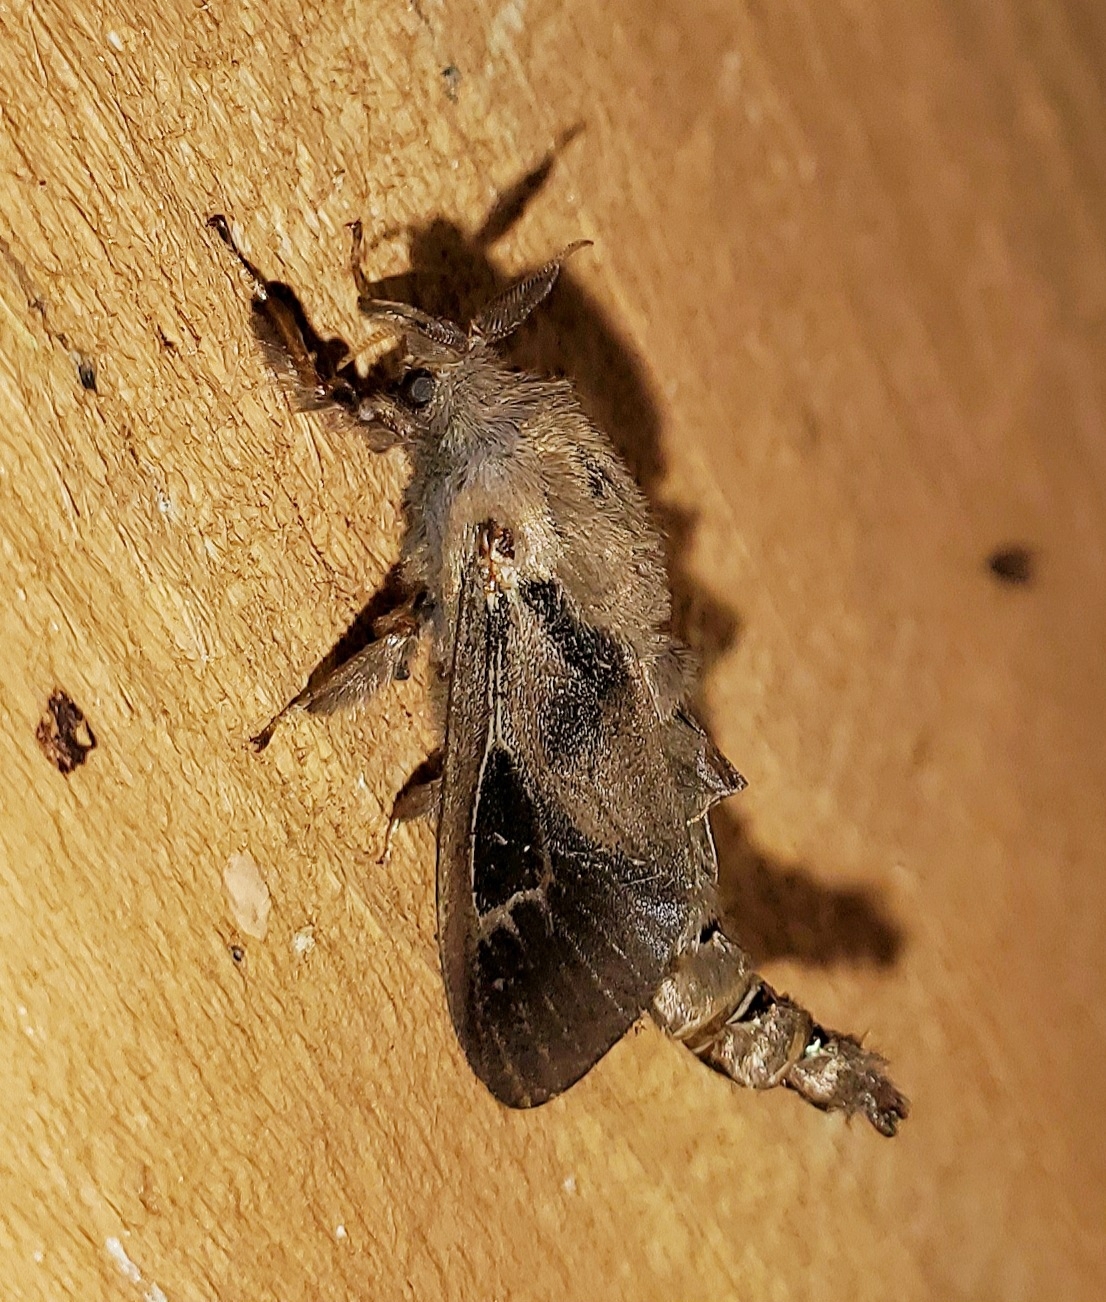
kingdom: Animalia
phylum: Arthropoda
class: Insecta
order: Lepidoptera
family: Psychidae
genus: Oiketicus
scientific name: Oiketicus
